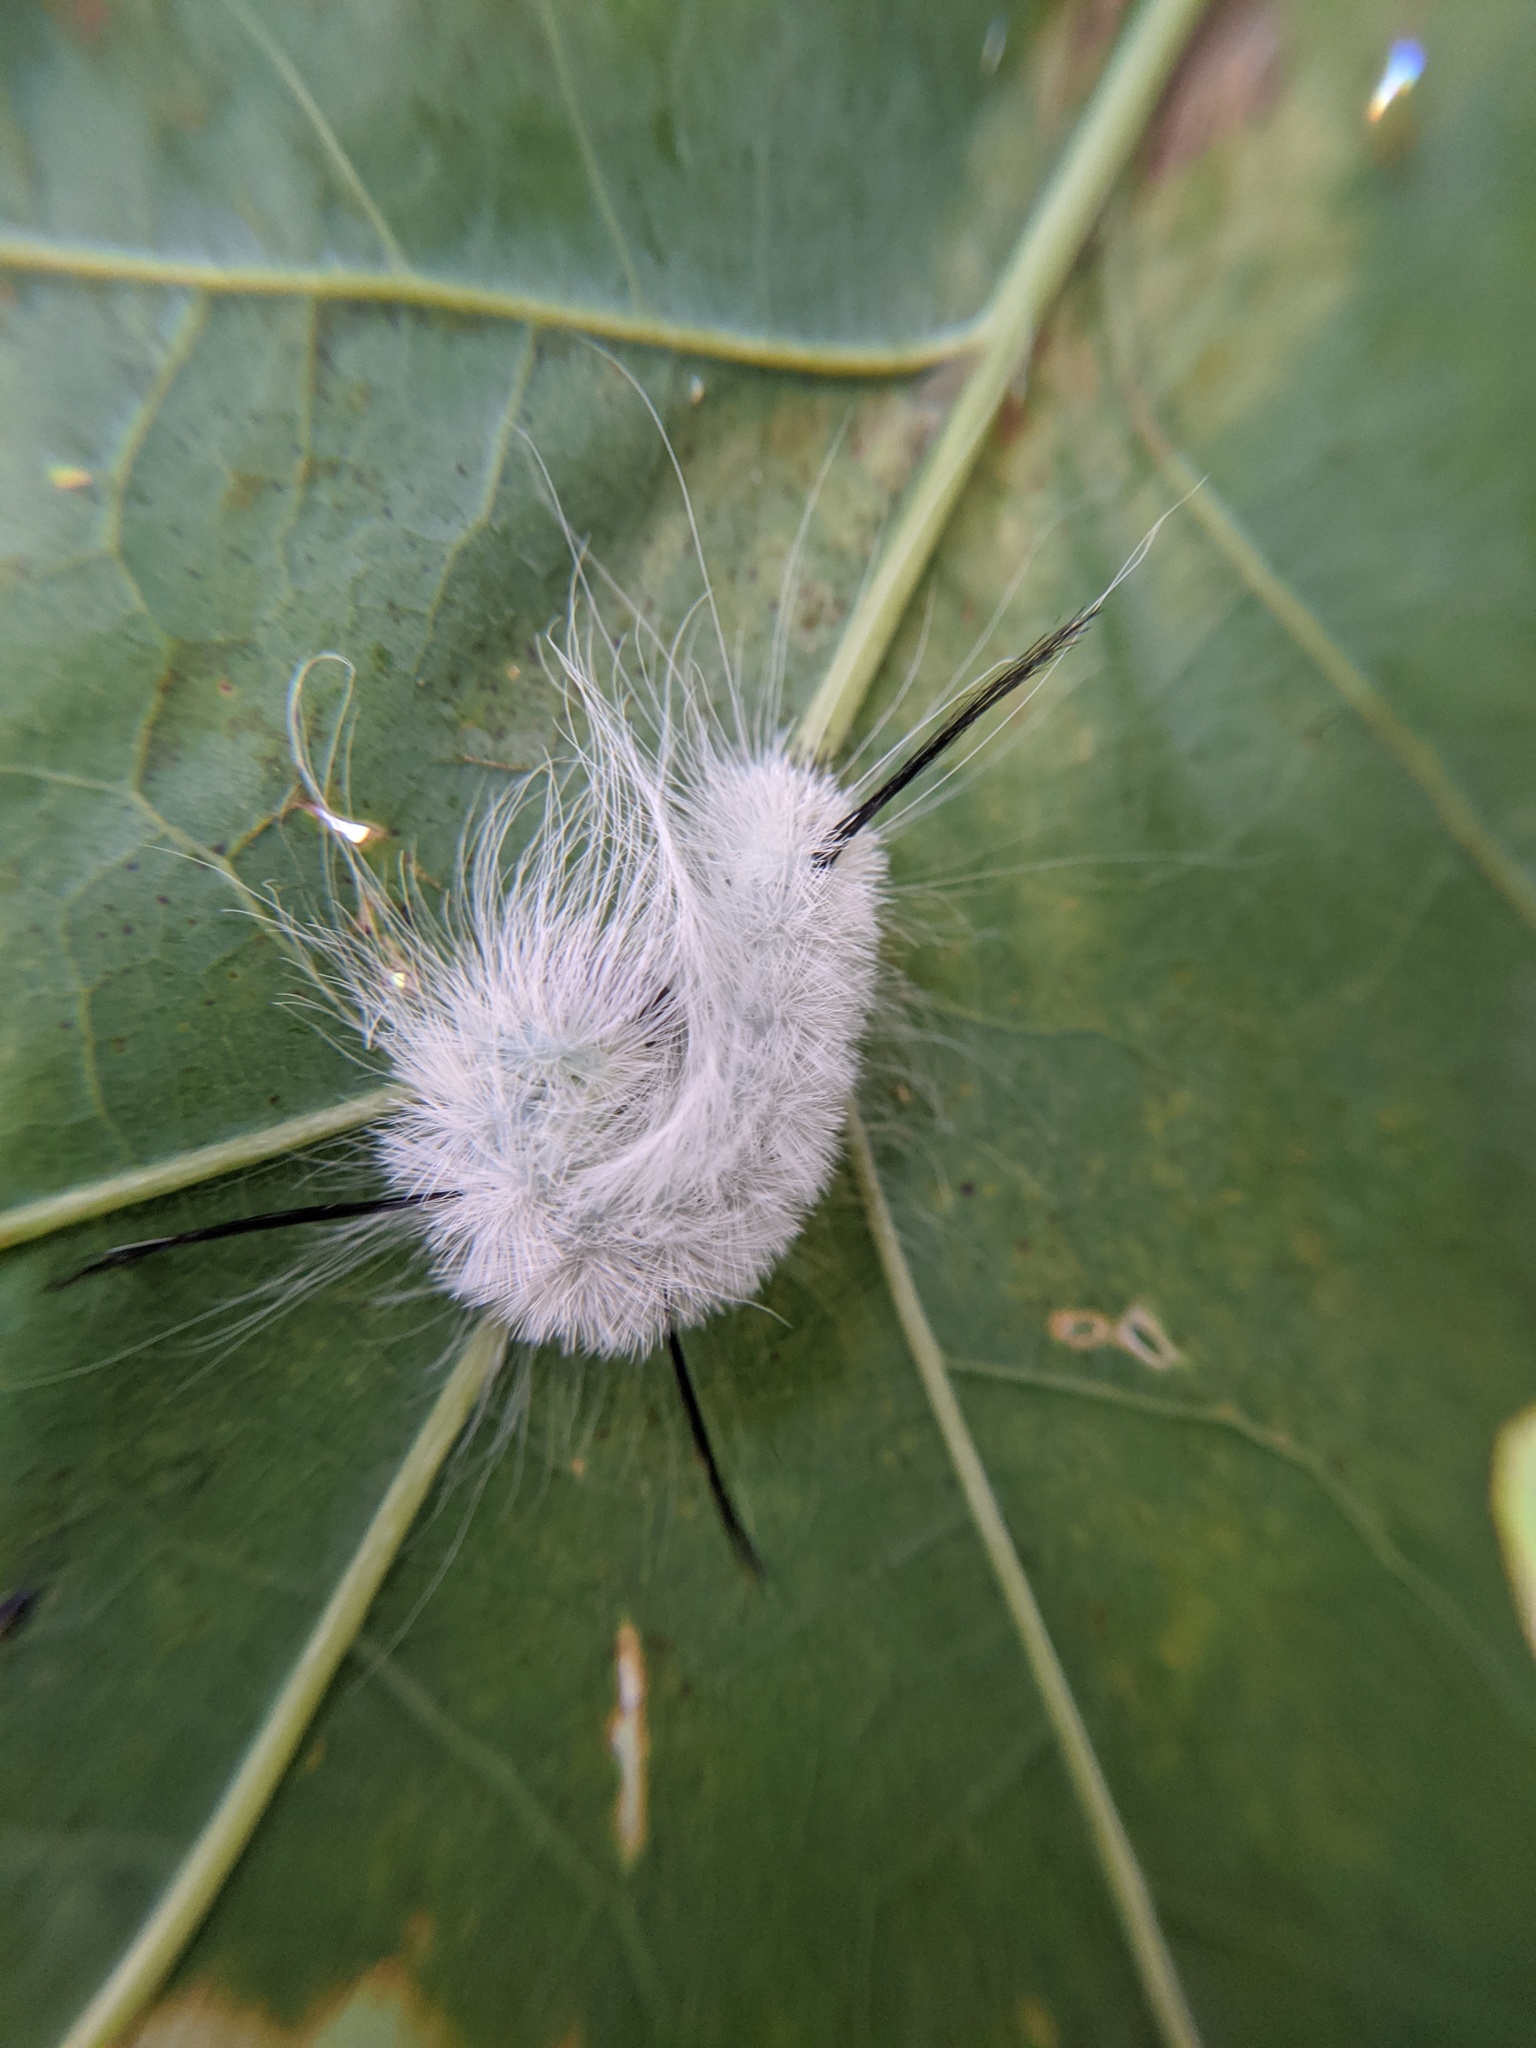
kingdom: Animalia
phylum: Arthropoda
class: Insecta
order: Lepidoptera
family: Noctuidae
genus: Acronicta
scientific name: Acronicta americana
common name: American dagger
